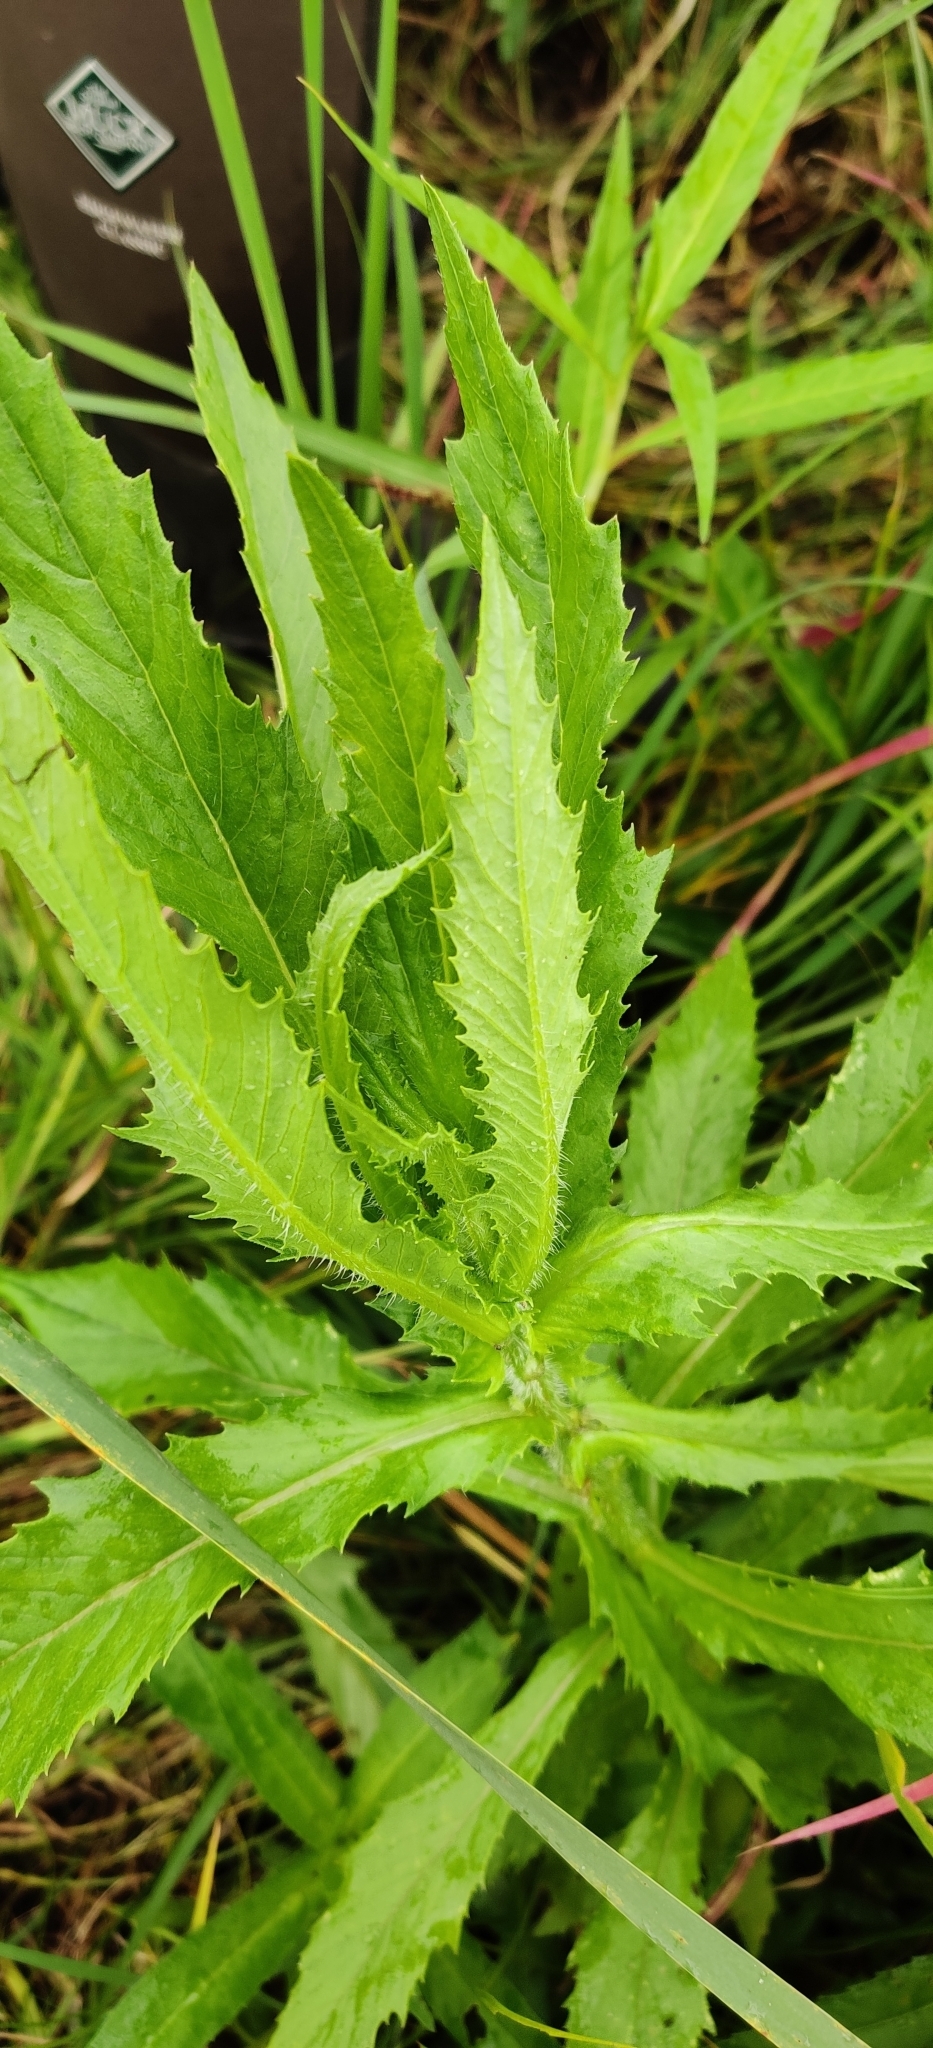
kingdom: Plantae
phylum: Tracheophyta
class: Magnoliopsida
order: Asterales
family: Asteraceae
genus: Erechtites
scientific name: Erechtites hieraciifolius
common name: American burnweed
